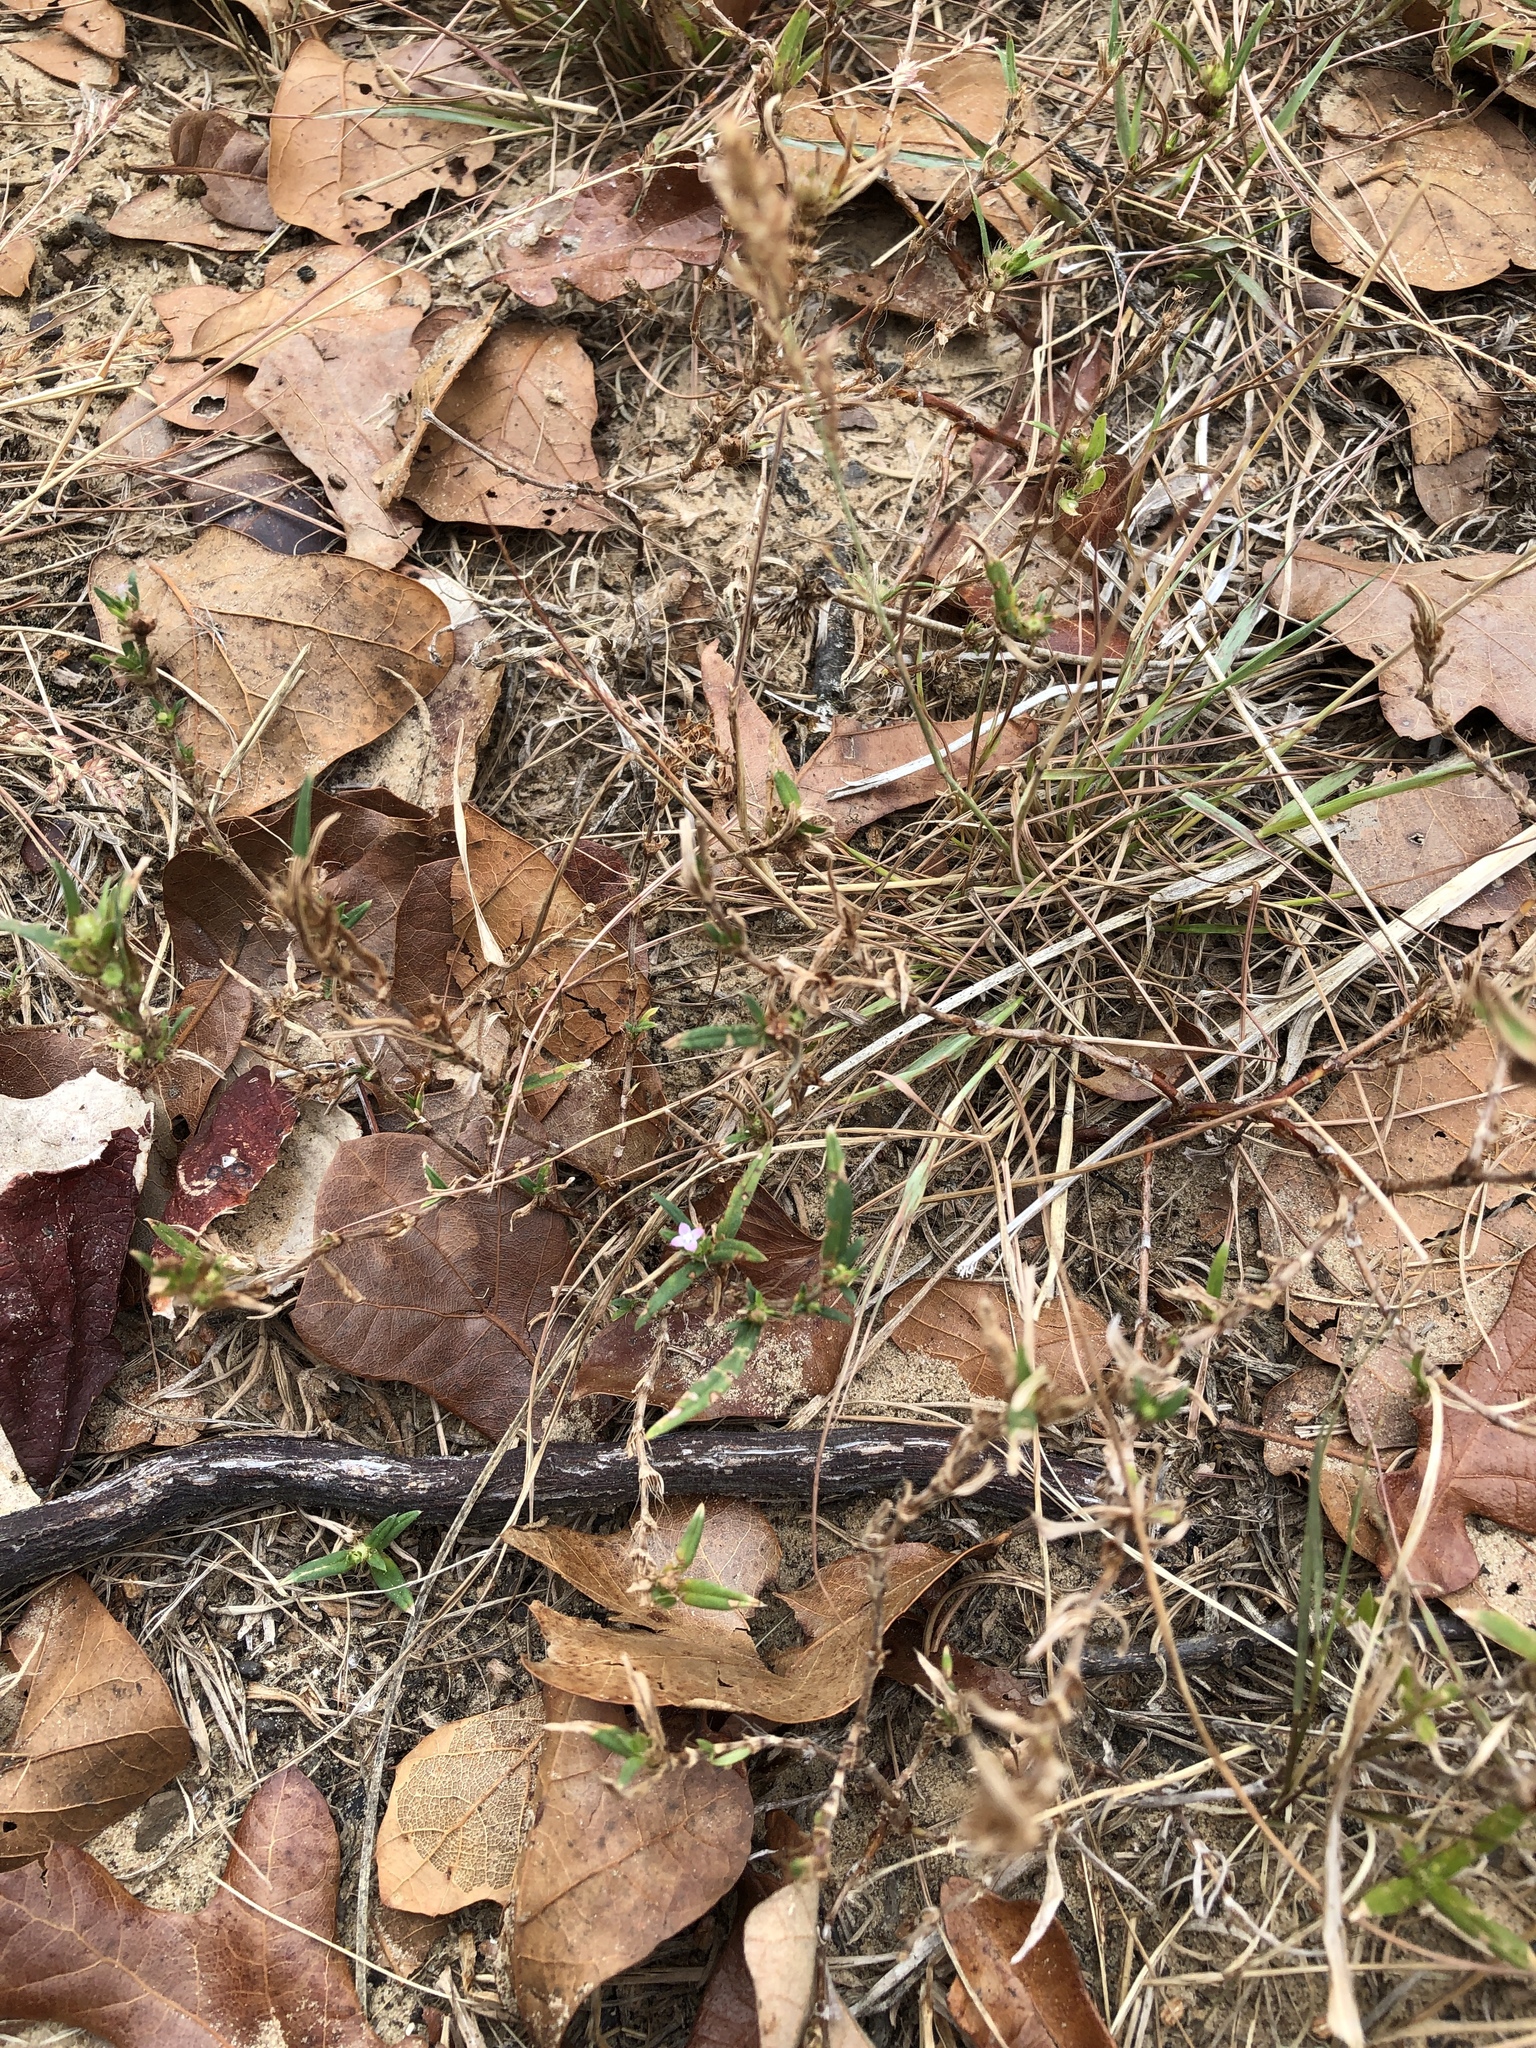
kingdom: Plantae
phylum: Tracheophyta
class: Magnoliopsida
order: Gentianales
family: Rubiaceae
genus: Hexasepalum
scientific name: Hexasepalum teres
